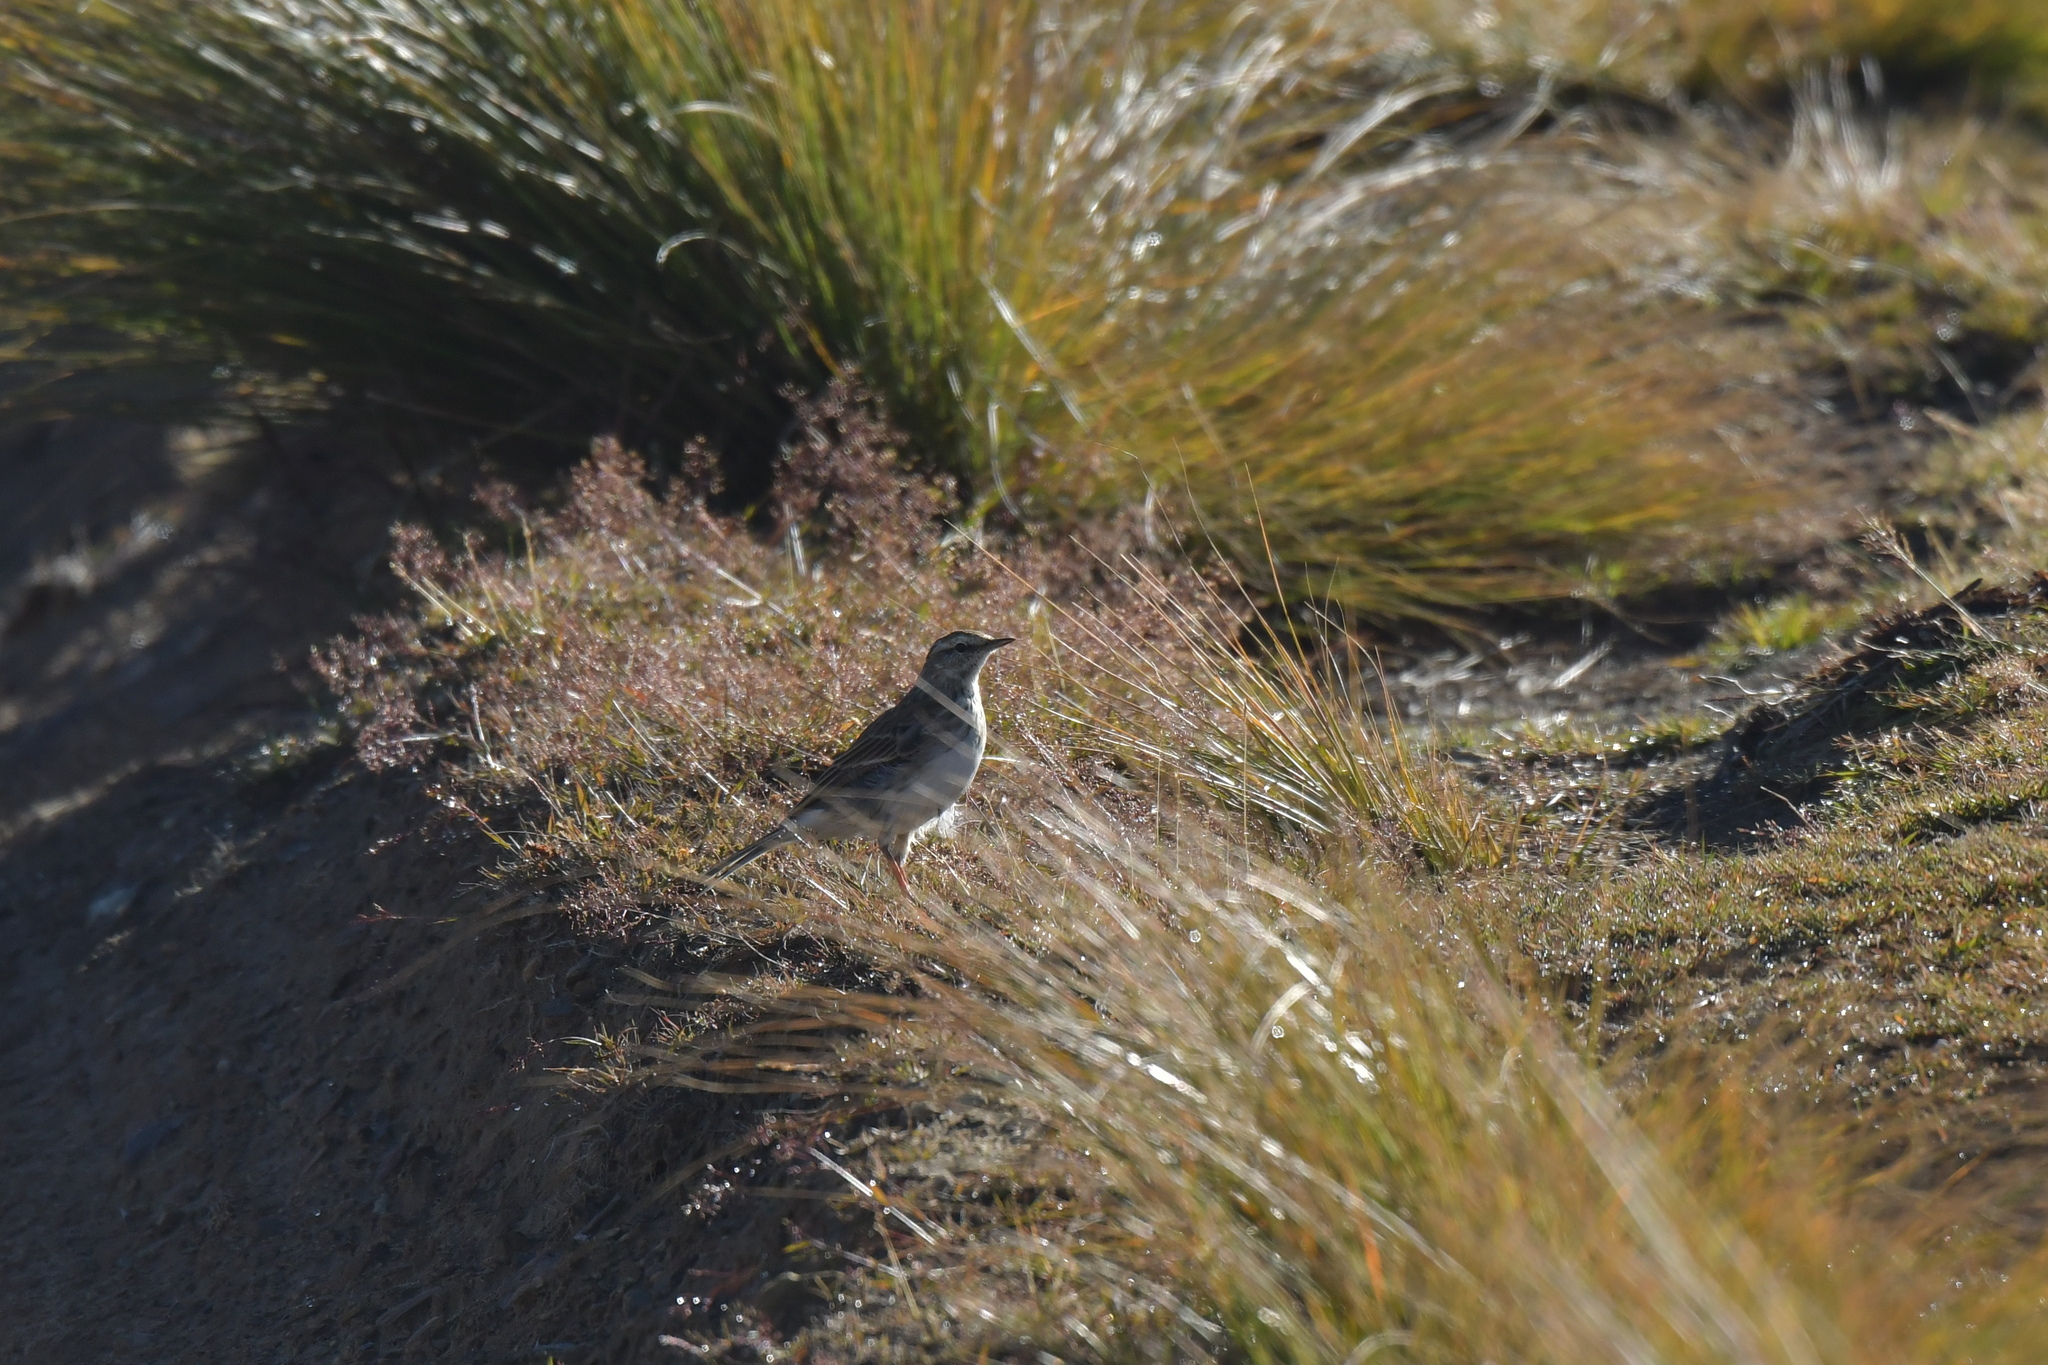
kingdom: Animalia
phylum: Chordata
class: Aves
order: Passeriformes
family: Motacillidae
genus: Anthus
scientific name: Anthus novaeseelandiae
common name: New zealand pipit
